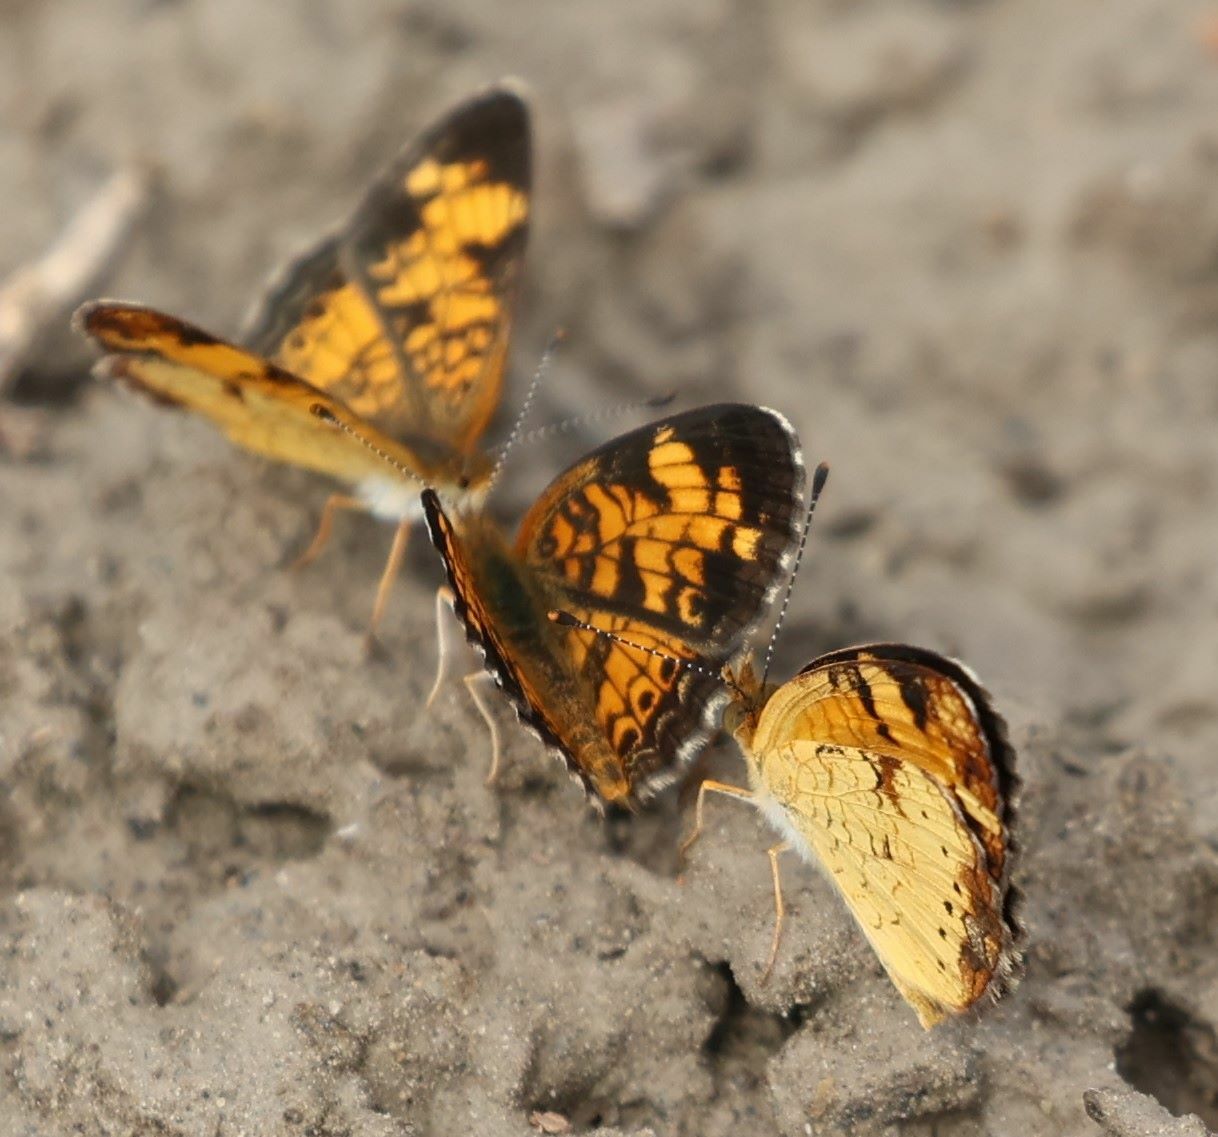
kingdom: Animalia
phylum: Arthropoda
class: Insecta
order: Lepidoptera
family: Nymphalidae
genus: Phyciodes
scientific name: Phyciodes tharos
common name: Pearl crescent
